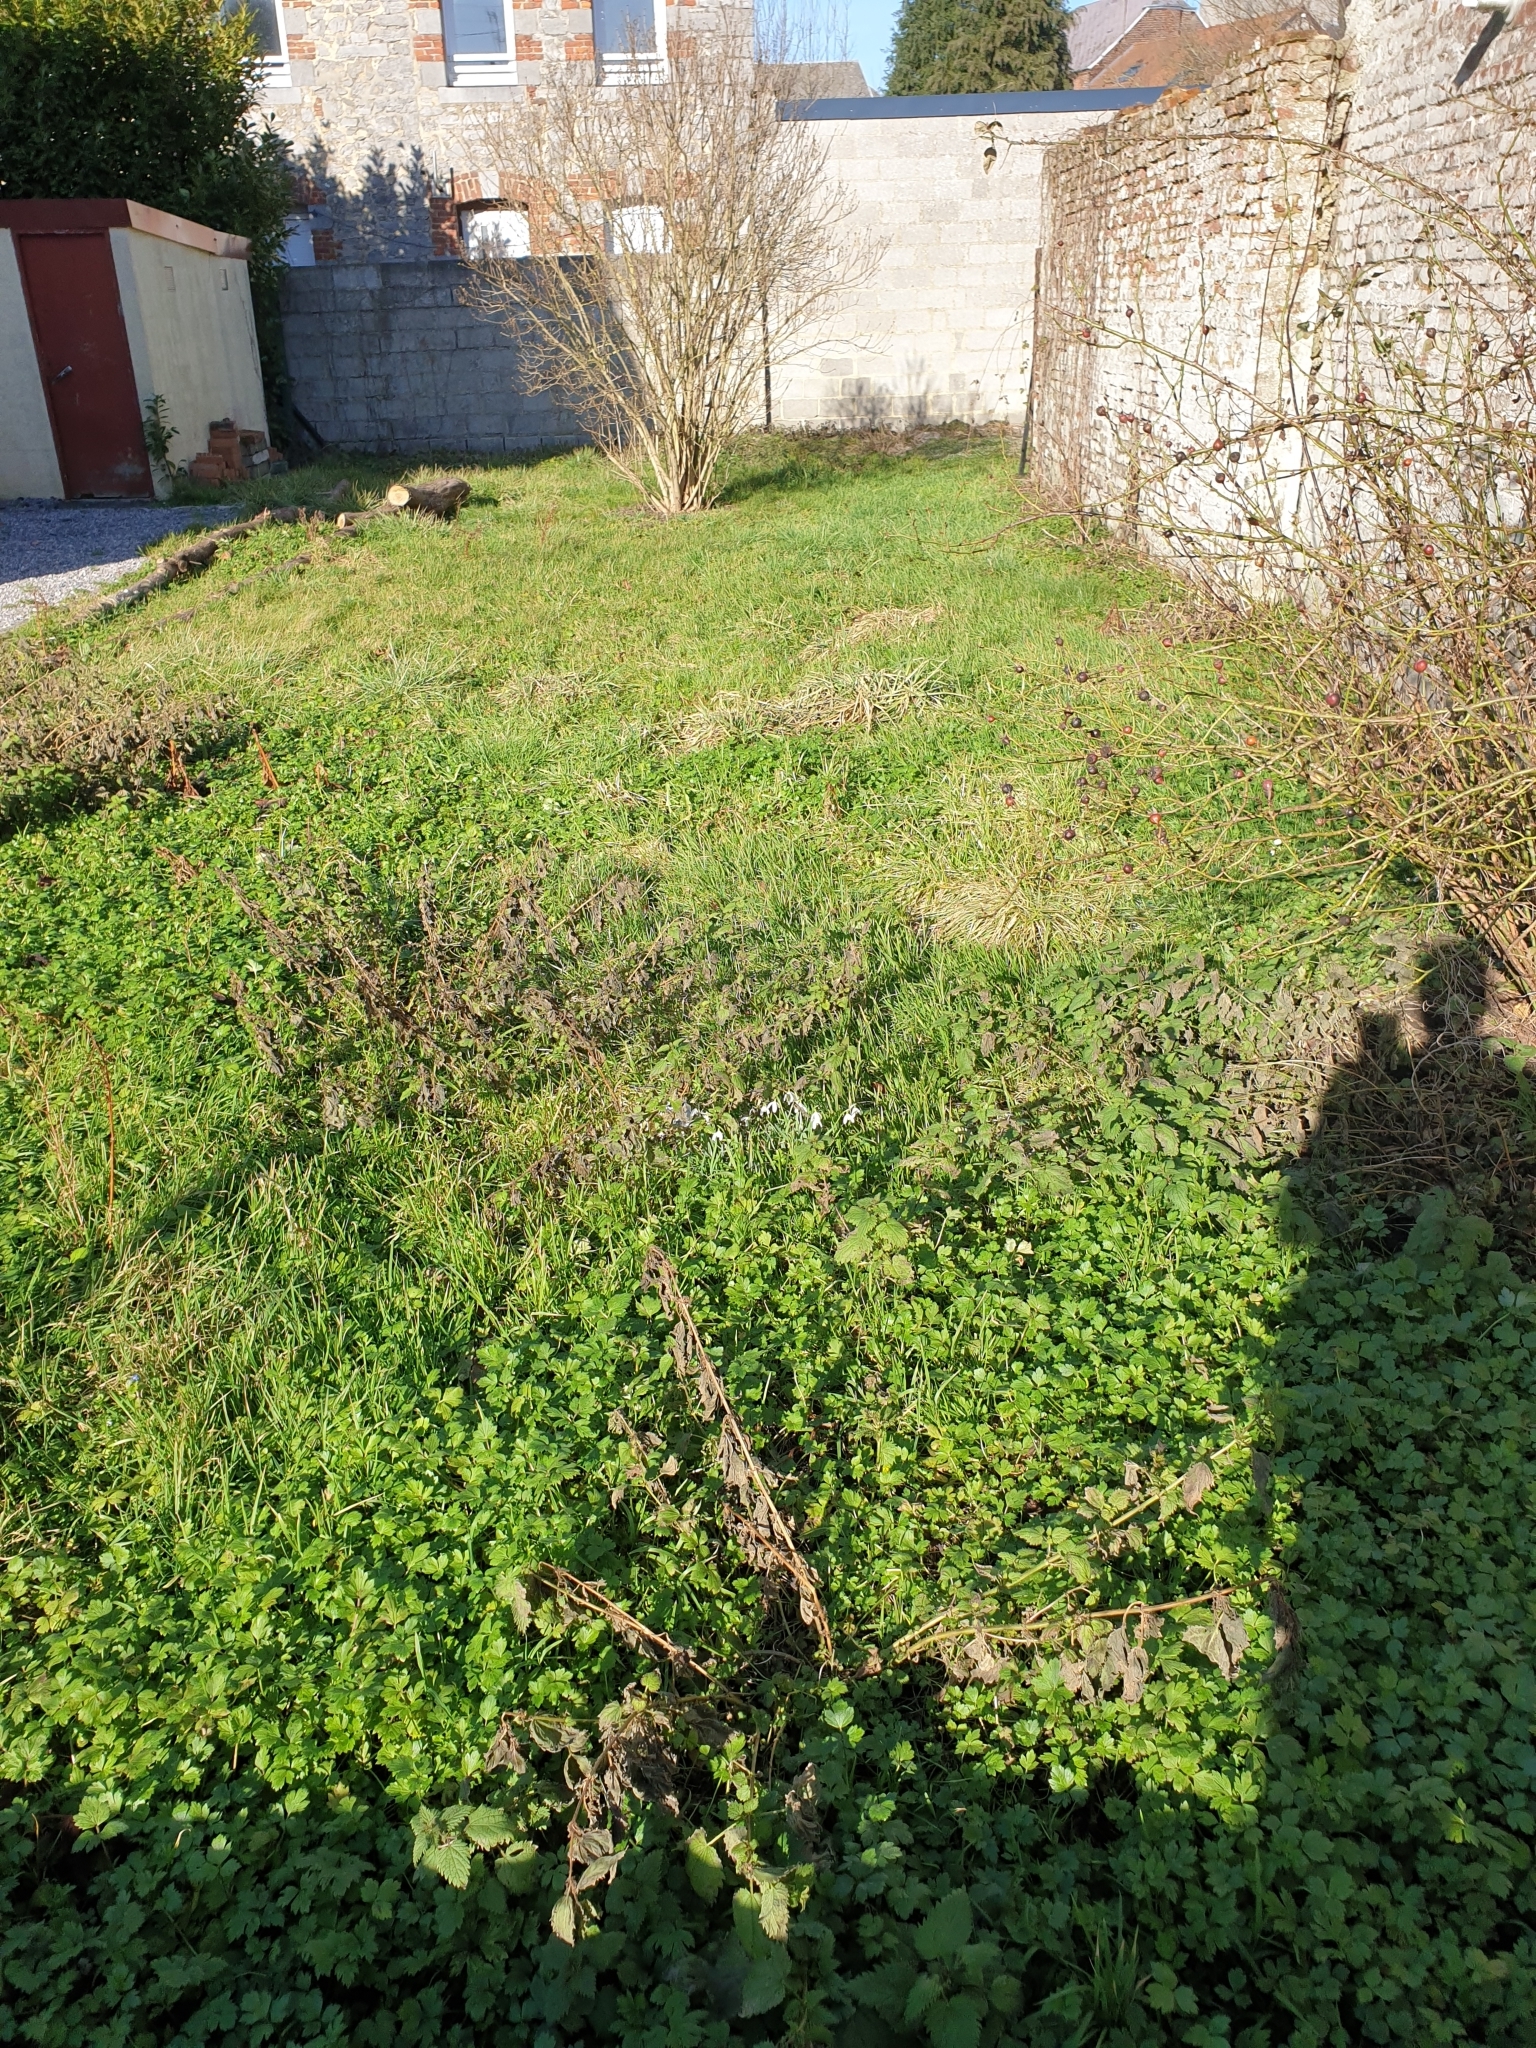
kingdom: Plantae
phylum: Tracheophyta
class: Liliopsida
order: Asparagales
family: Amaryllidaceae
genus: Galanthus
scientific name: Galanthus nivalis
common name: Snowdrop
